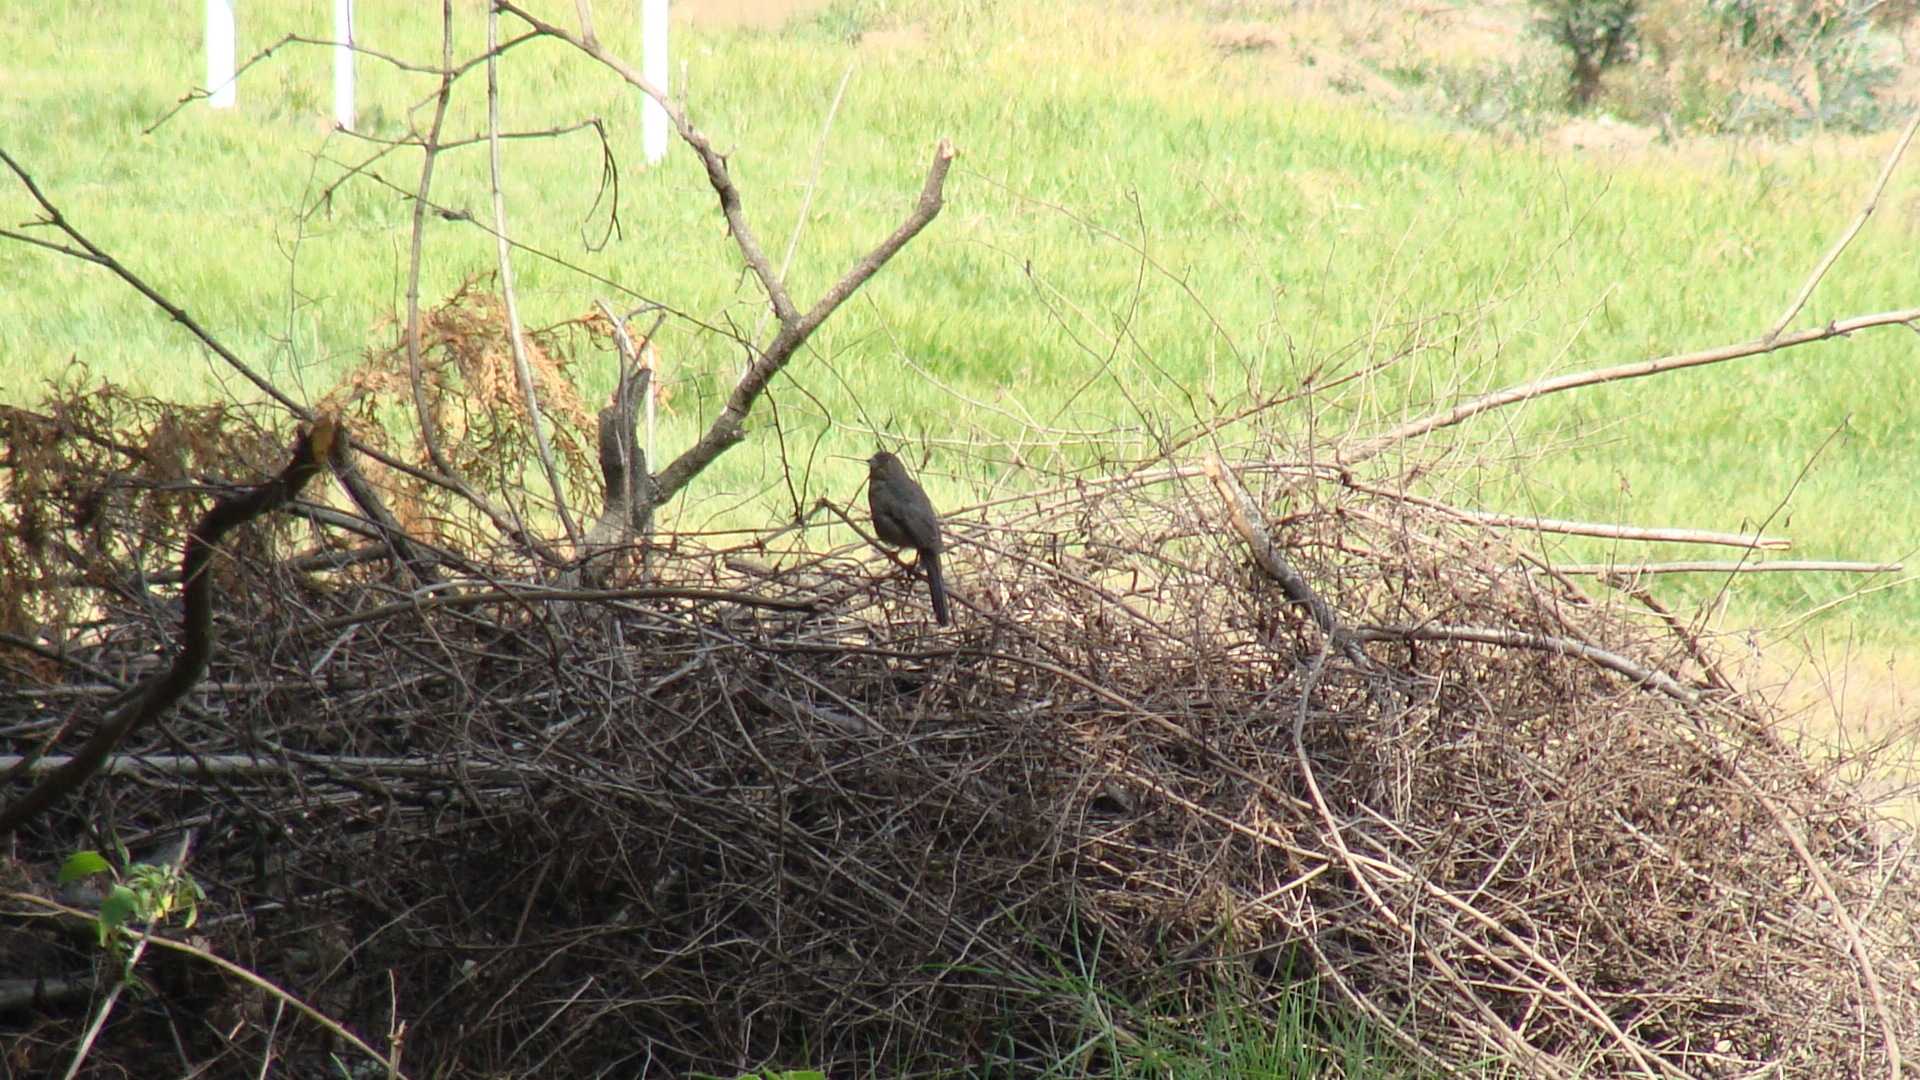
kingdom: Animalia
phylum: Chordata
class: Aves
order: Passeriformes
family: Passerellidae
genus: Melozone
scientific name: Melozone fusca
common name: Canyon towhee
